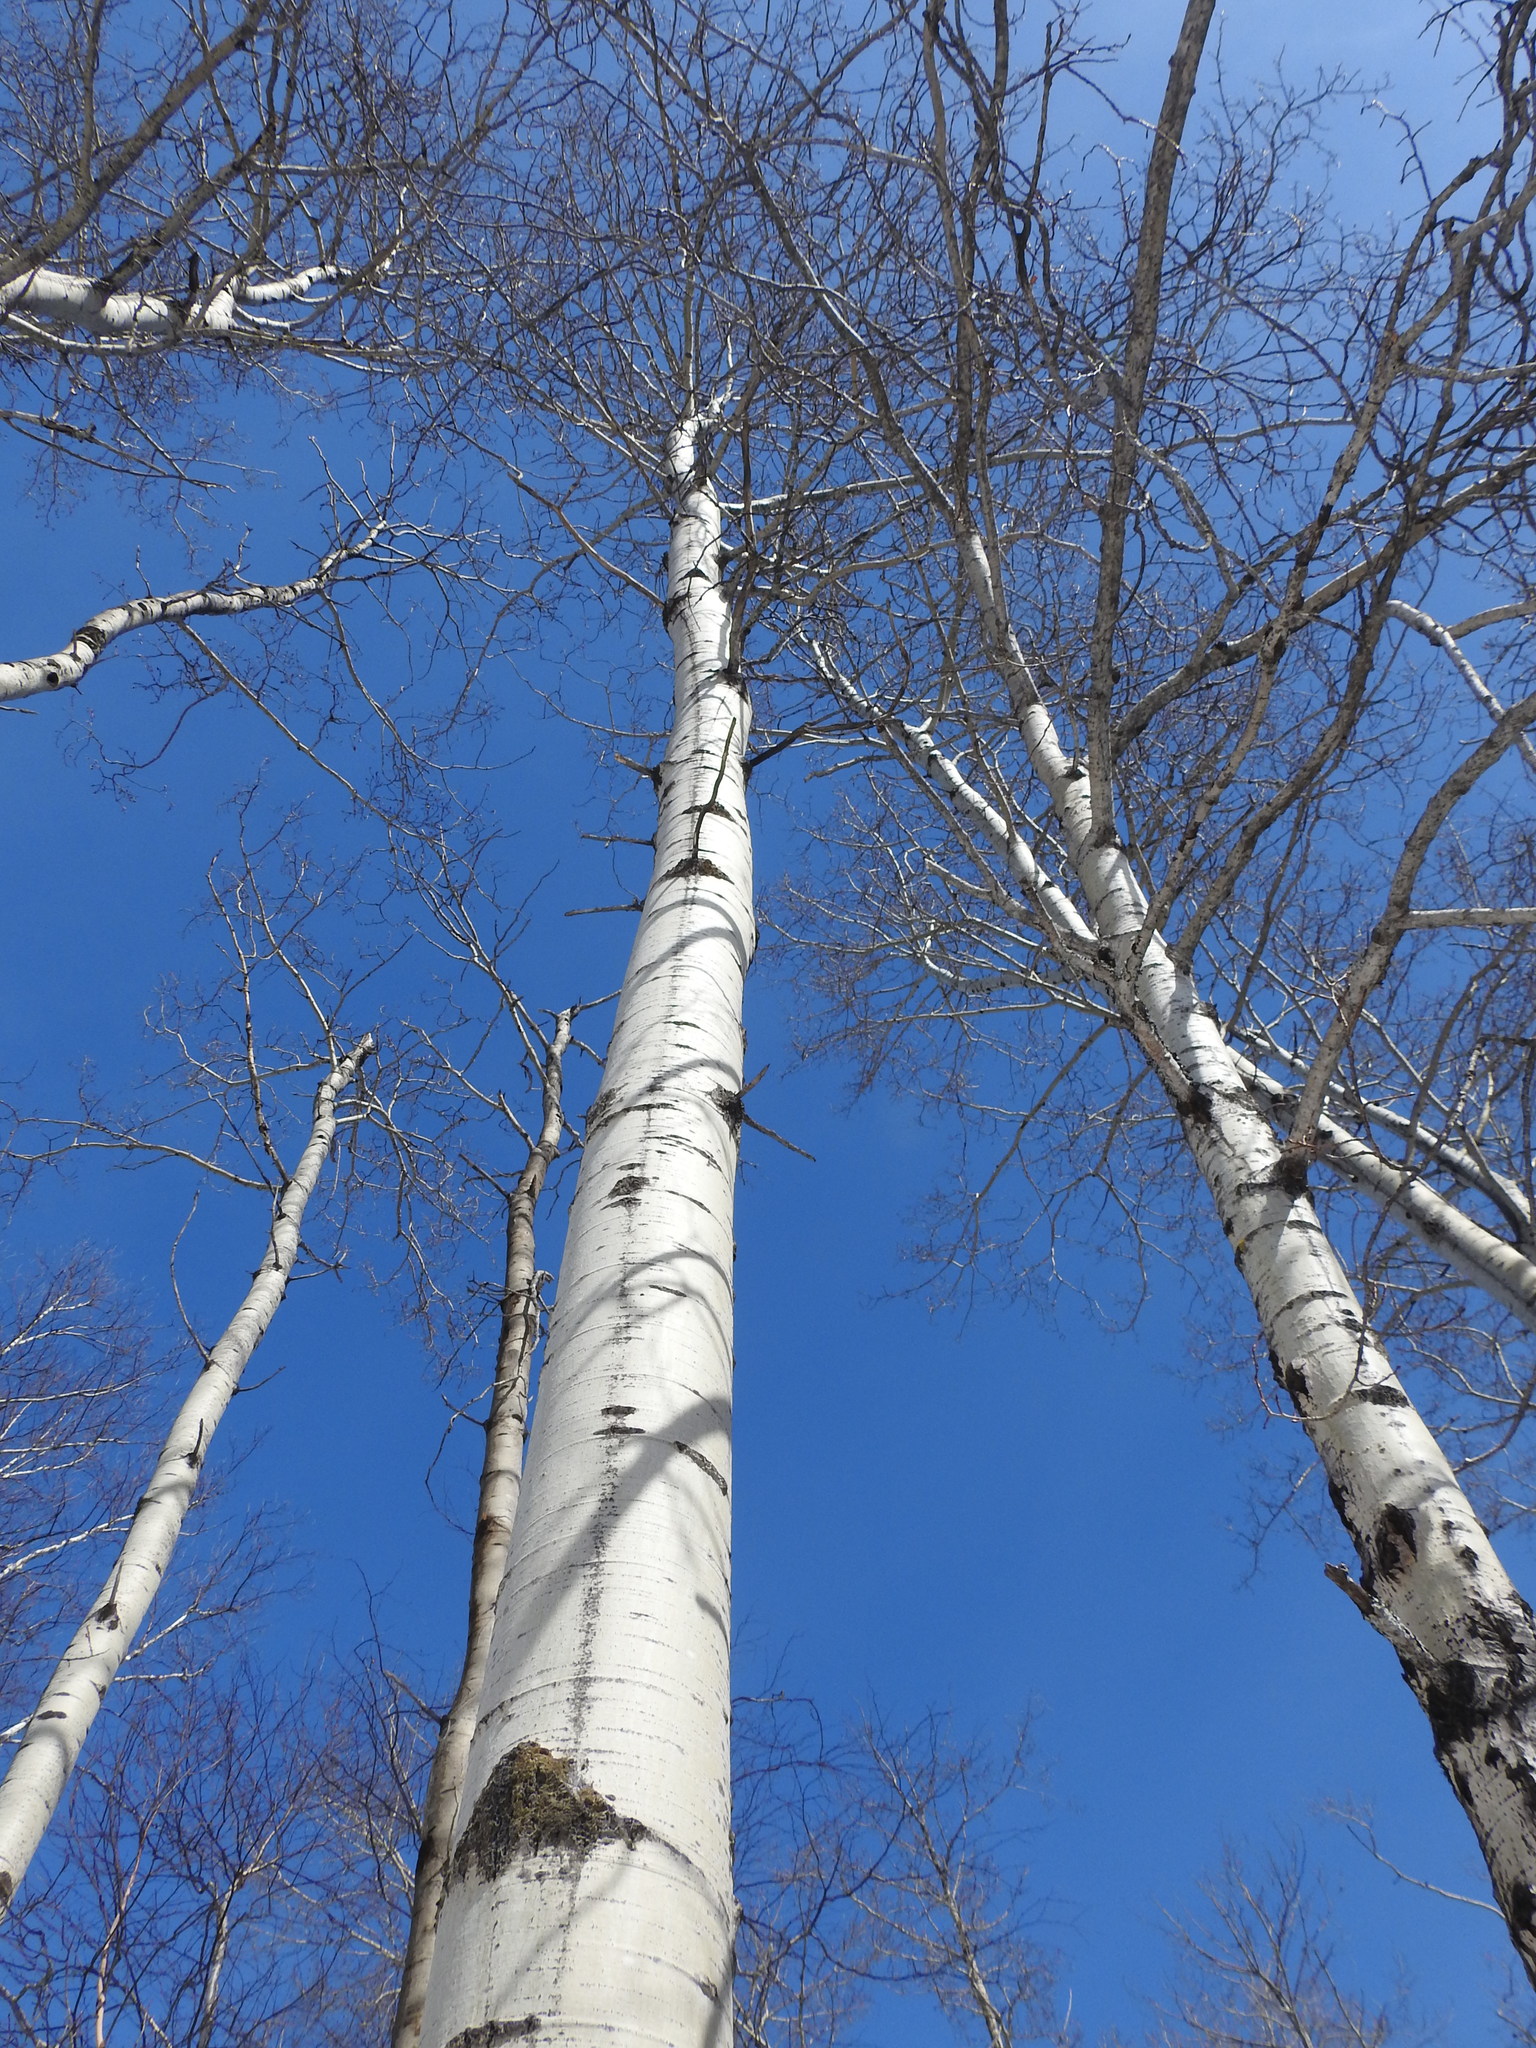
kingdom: Plantae
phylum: Tracheophyta
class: Magnoliopsida
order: Malpighiales
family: Salicaceae
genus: Populus
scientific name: Populus tremuloides
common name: Quaking aspen
